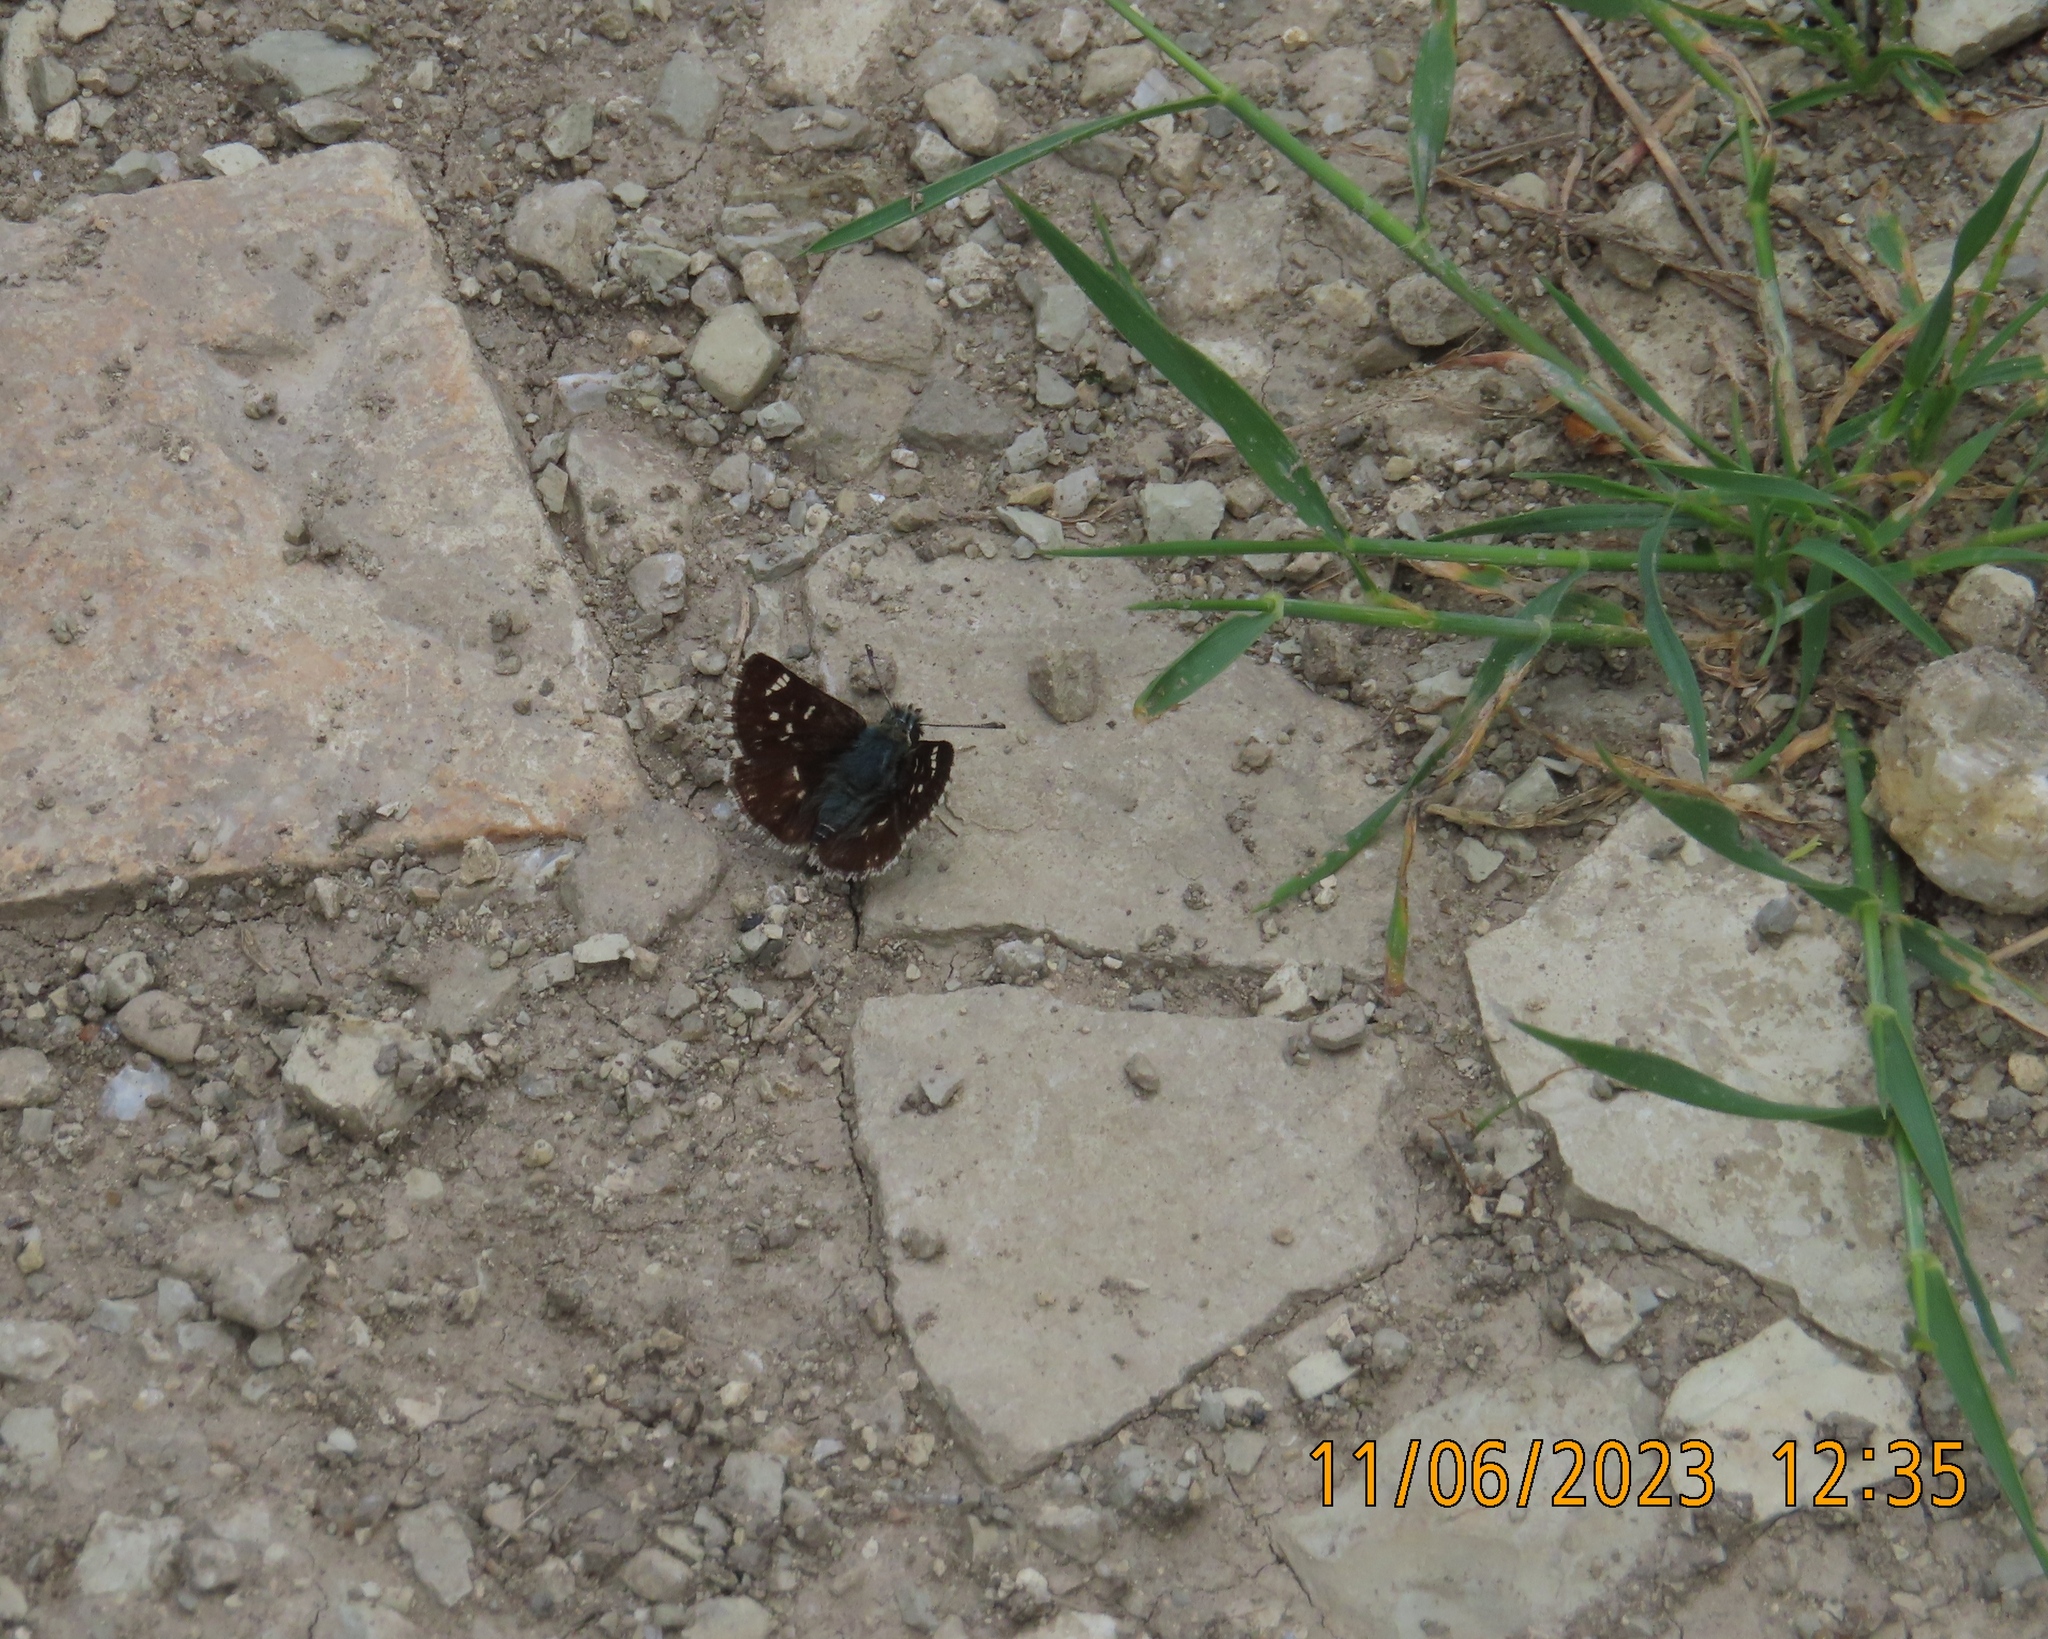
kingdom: Animalia
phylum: Arthropoda
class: Insecta
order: Lepidoptera
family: Hesperiidae
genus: Spialia
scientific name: Spialia sertorius
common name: Red underwing skipper
